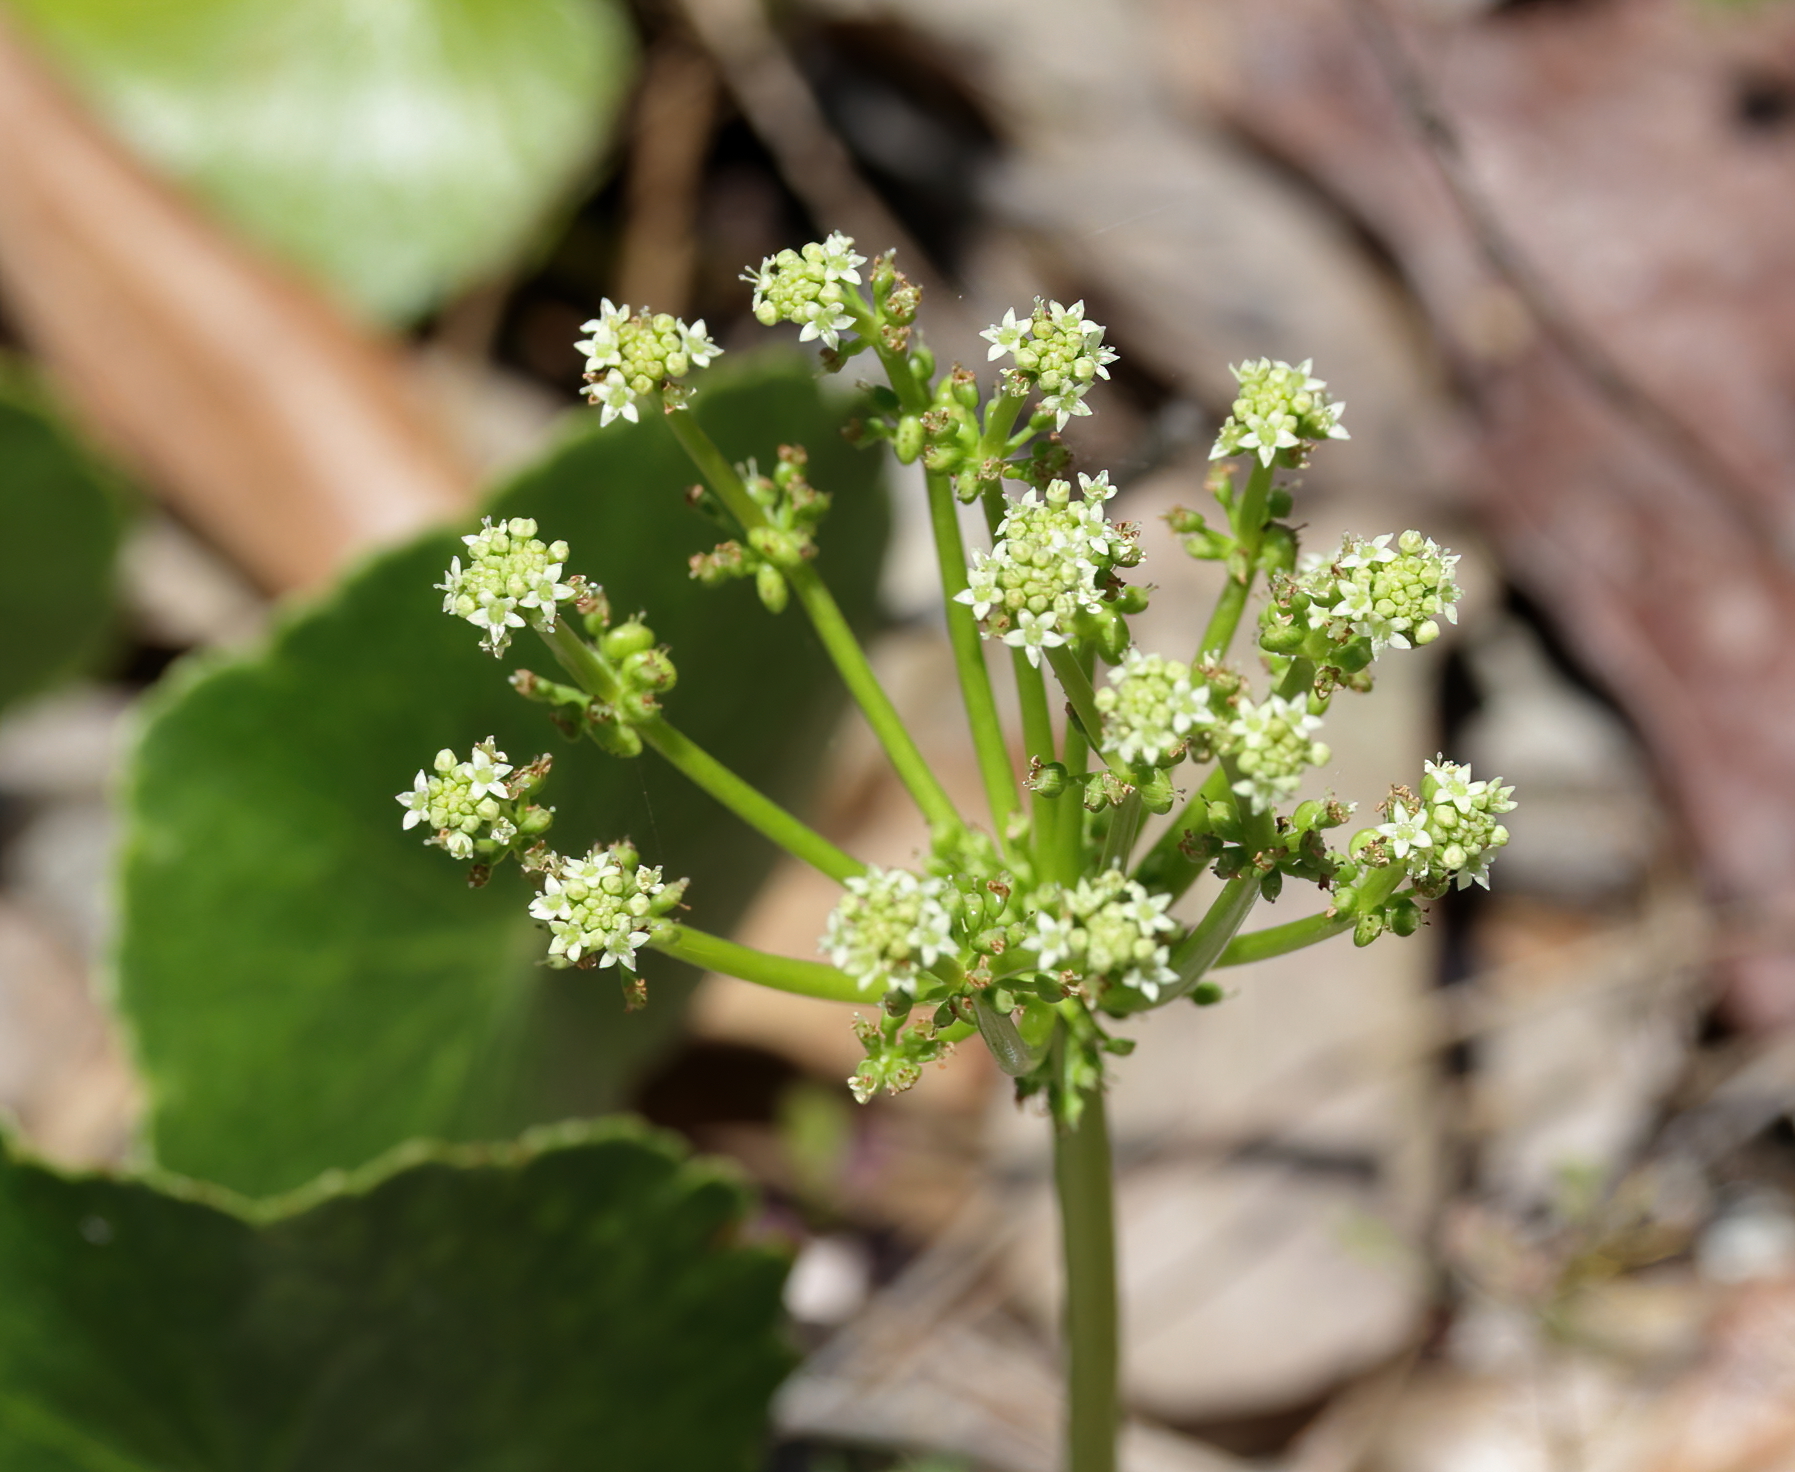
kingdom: Plantae
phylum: Tracheophyta
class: Magnoliopsida
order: Apiales
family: Araliaceae
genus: Hydrocotyle
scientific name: Hydrocotyle bonariensis
